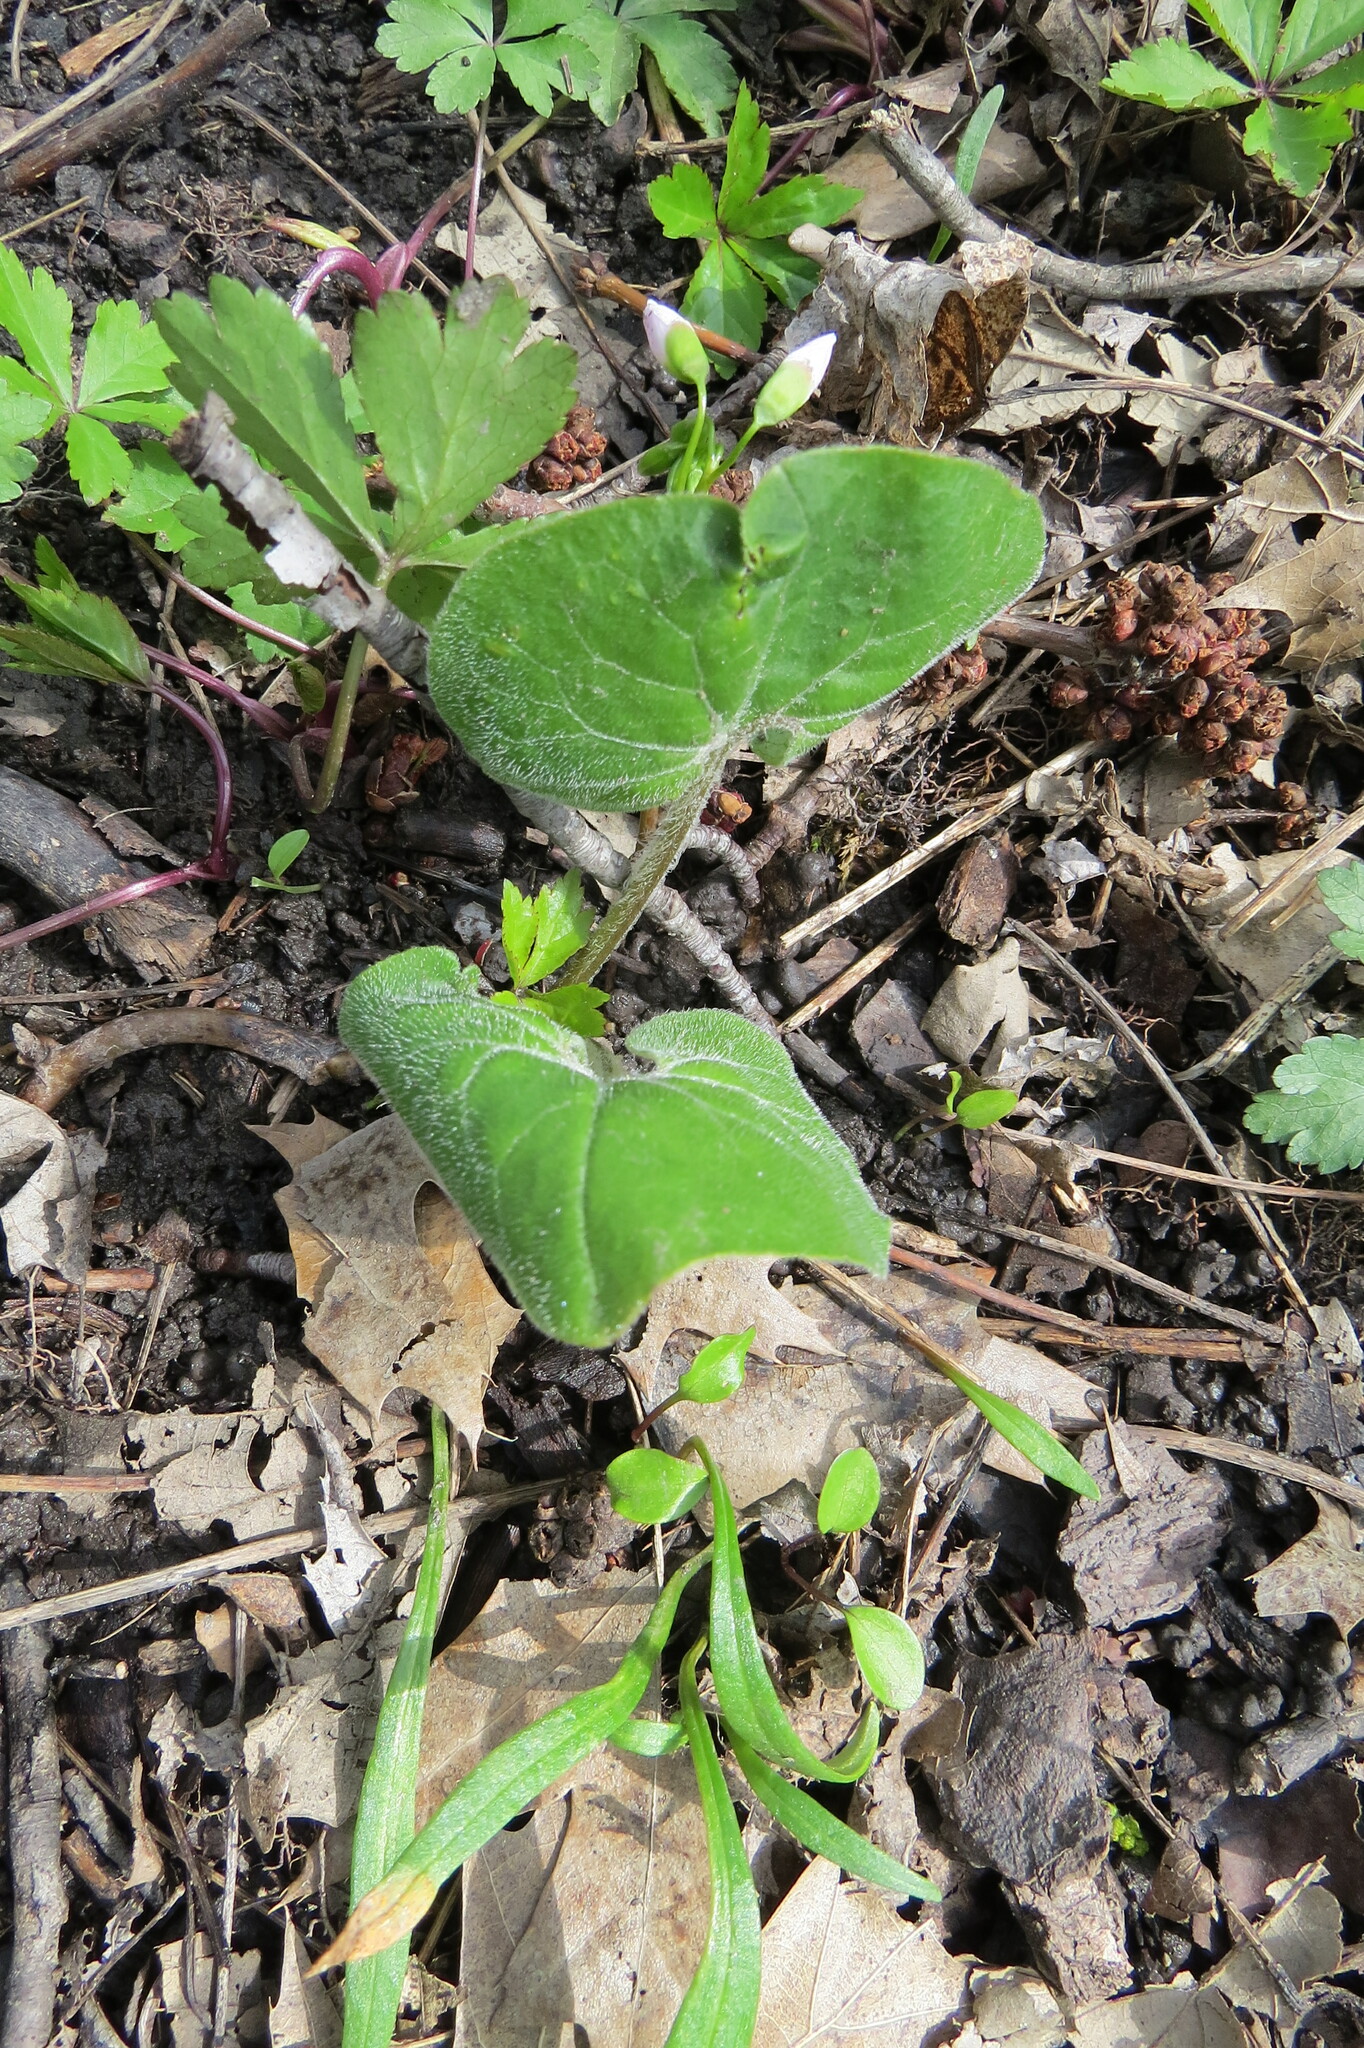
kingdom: Plantae
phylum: Tracheophyta
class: Magnoliopsida
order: Piperales
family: Aristolochiaceae
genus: Asarum
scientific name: Asarum canadense
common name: Wild ginger
